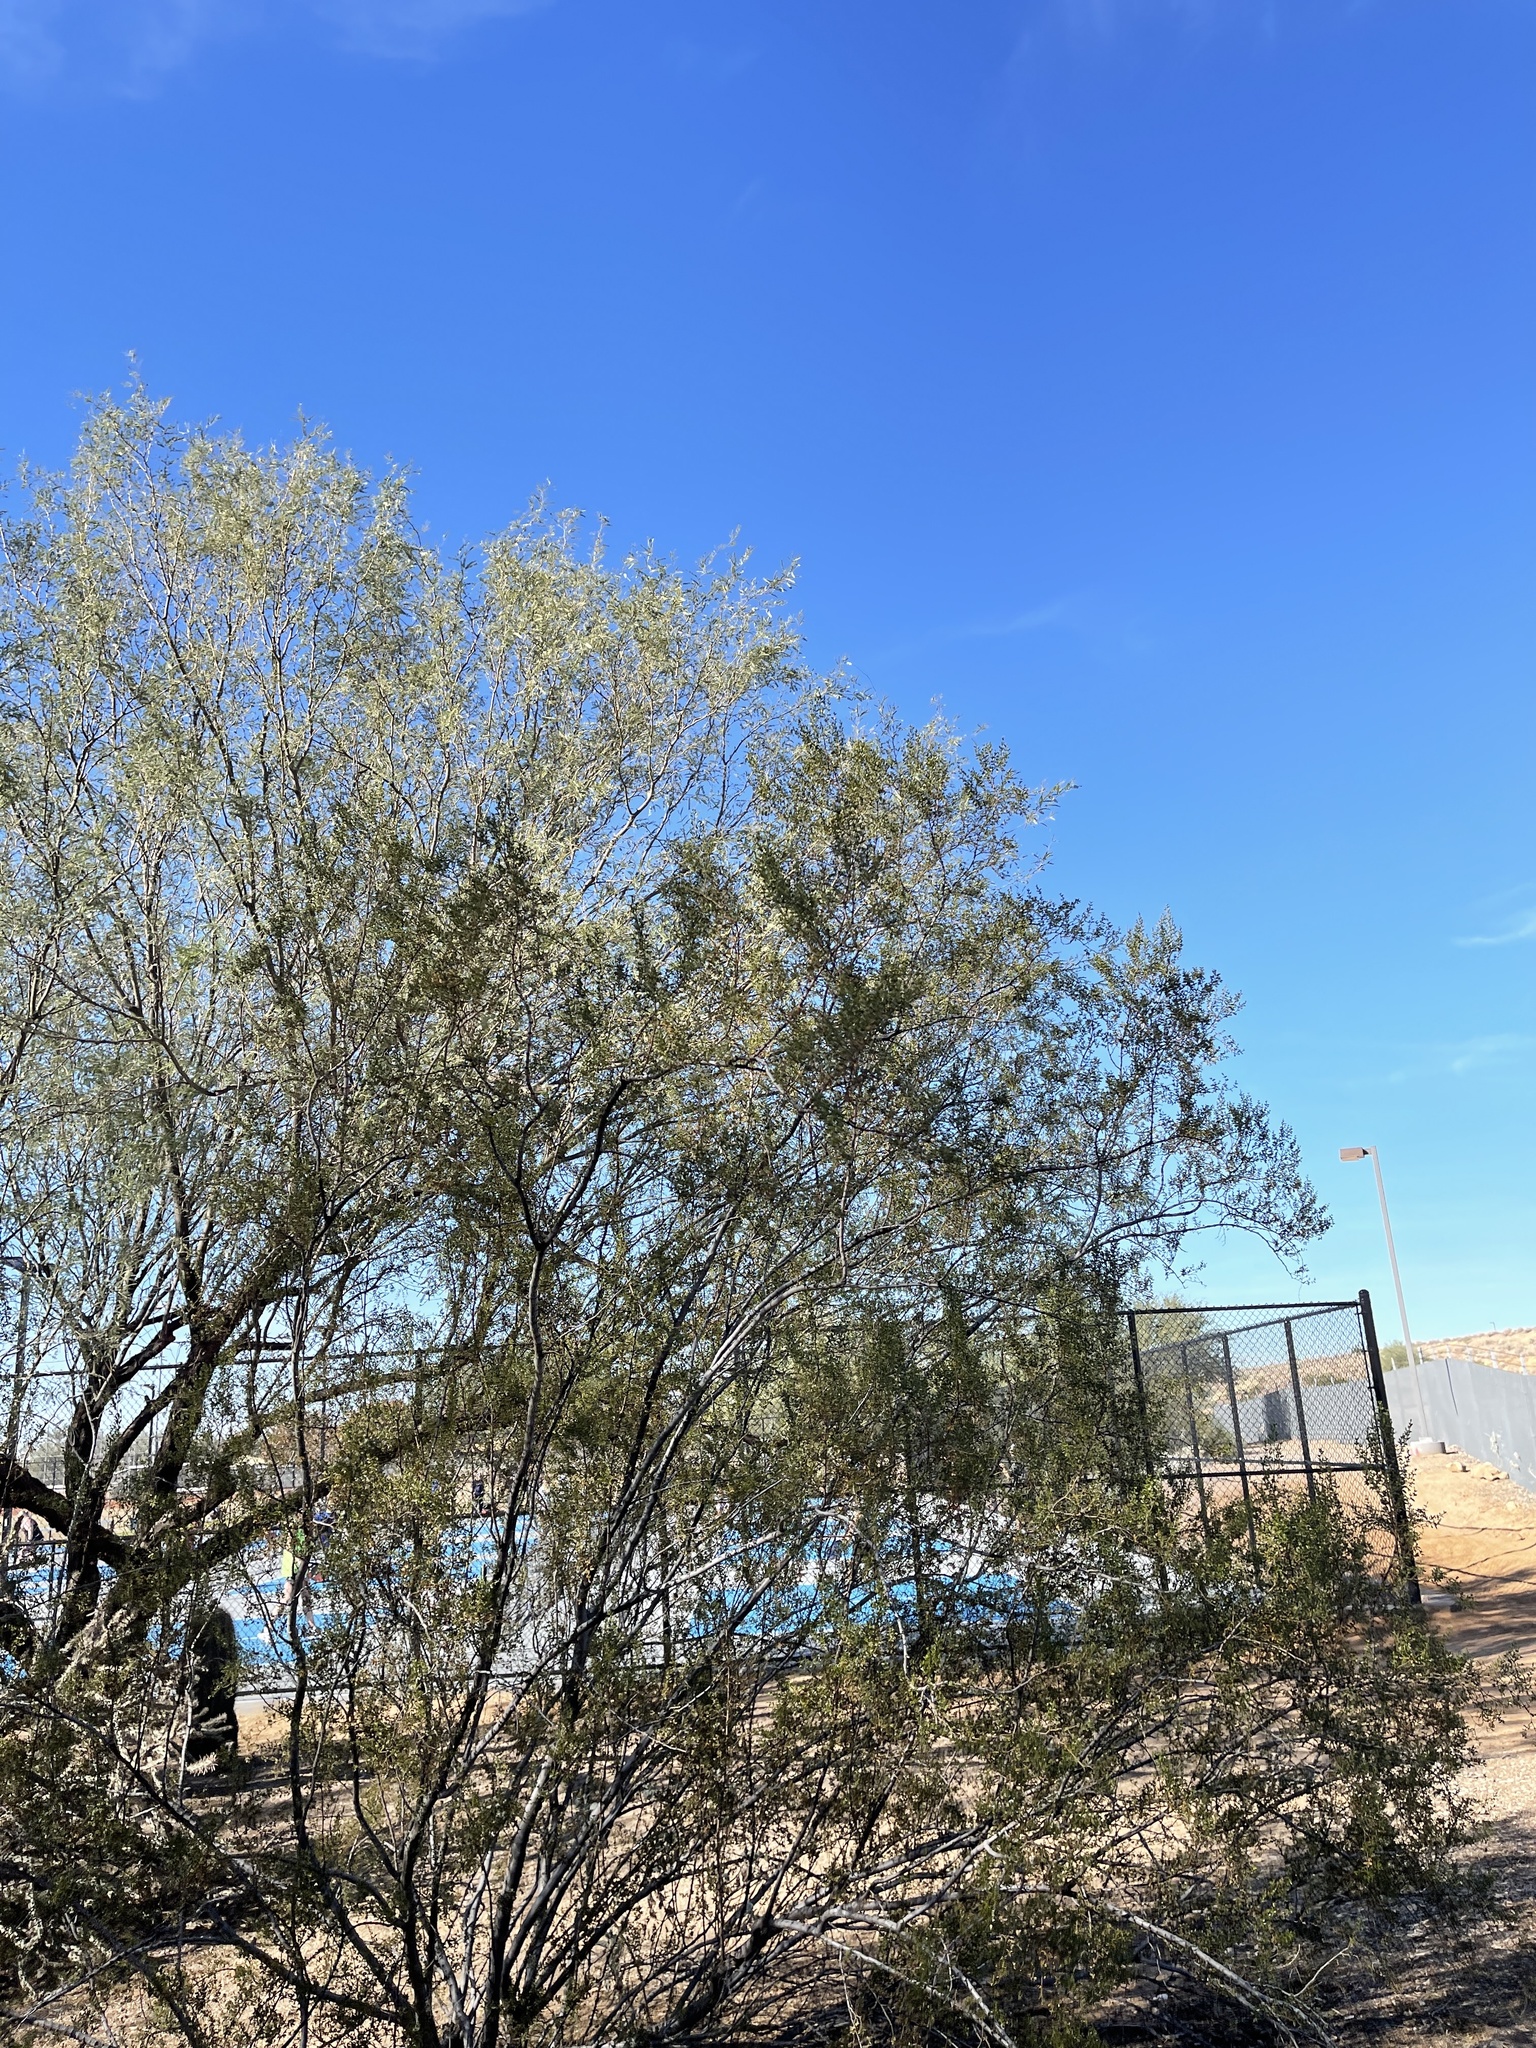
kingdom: Plantae
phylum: Tracheophyta
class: Magnoliopsida
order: Zygophyllales
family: Zygophyllaceae
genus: Larrea
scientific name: Larrea tridentata
